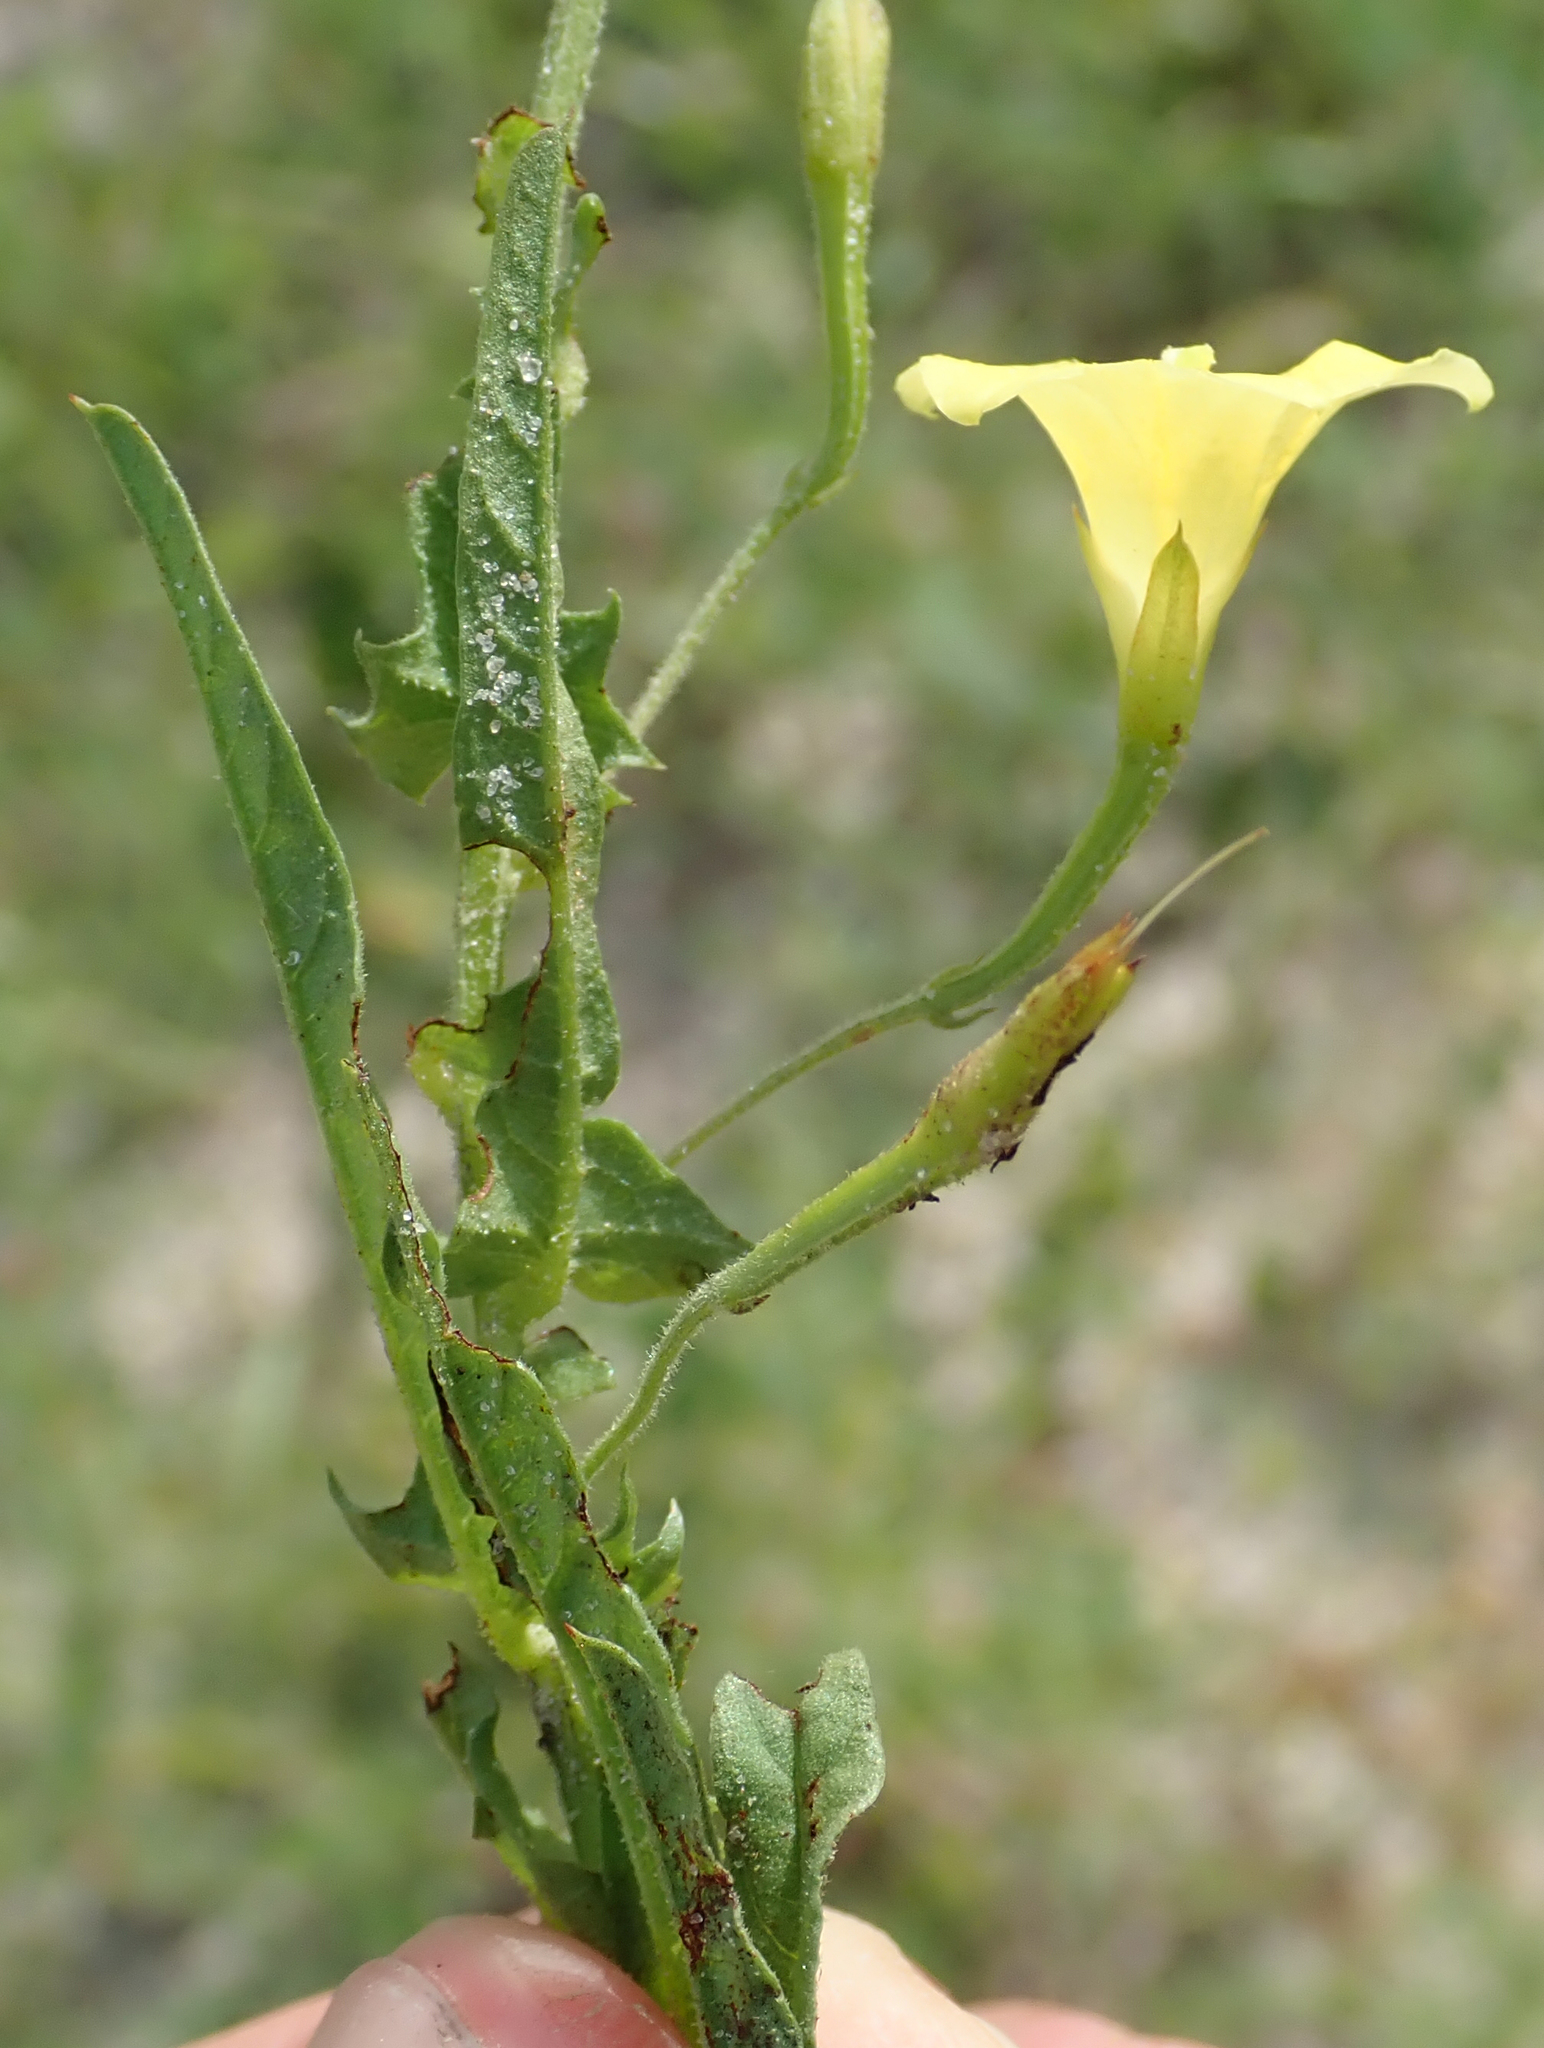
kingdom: Plantae
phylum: Tracheophyta
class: Magnoliopsida
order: Solanales
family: Convolvulaceae
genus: Xenostegia
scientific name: Xenostegia tridentata
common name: African morningvine
